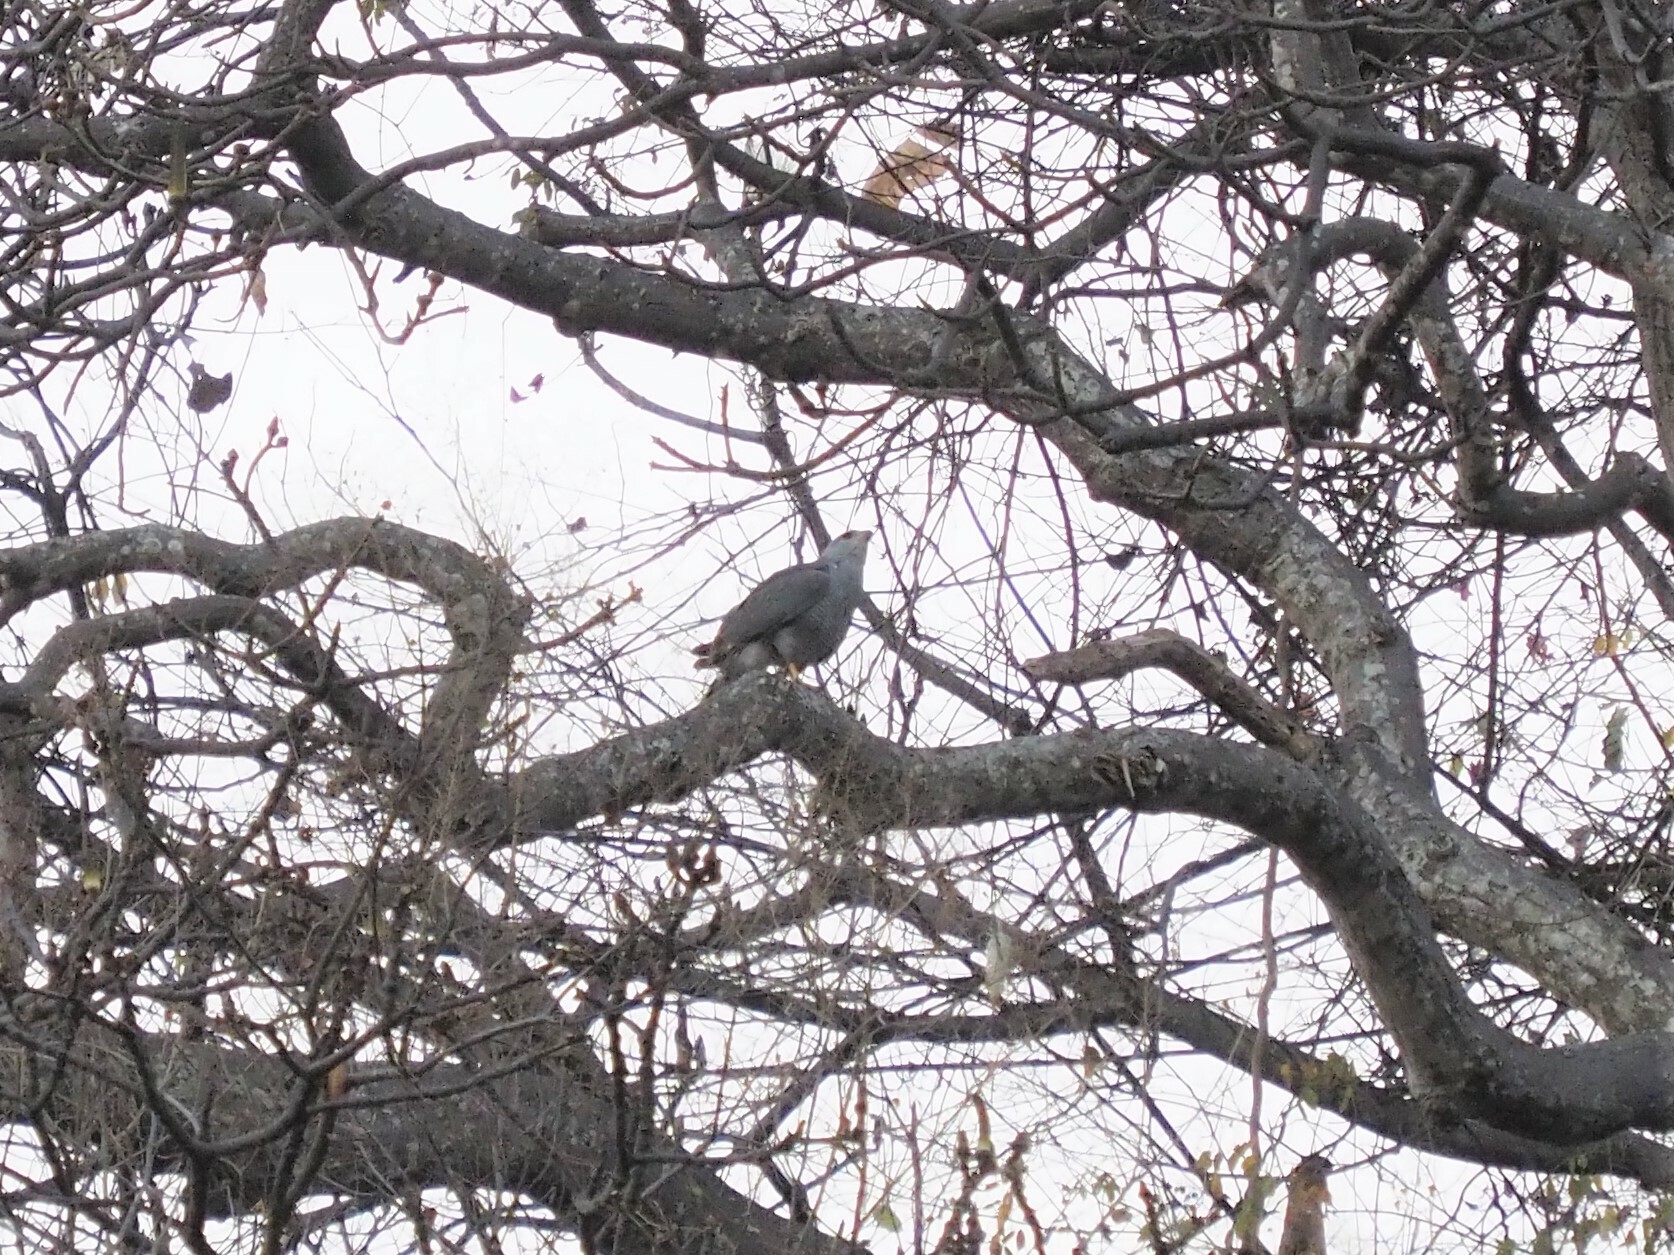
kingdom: Animalia
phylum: Chordata
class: Aves
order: Accipitriformes
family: Accipitridae
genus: Buteo
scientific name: Buteo nitidus
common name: Grey-lined hawk
